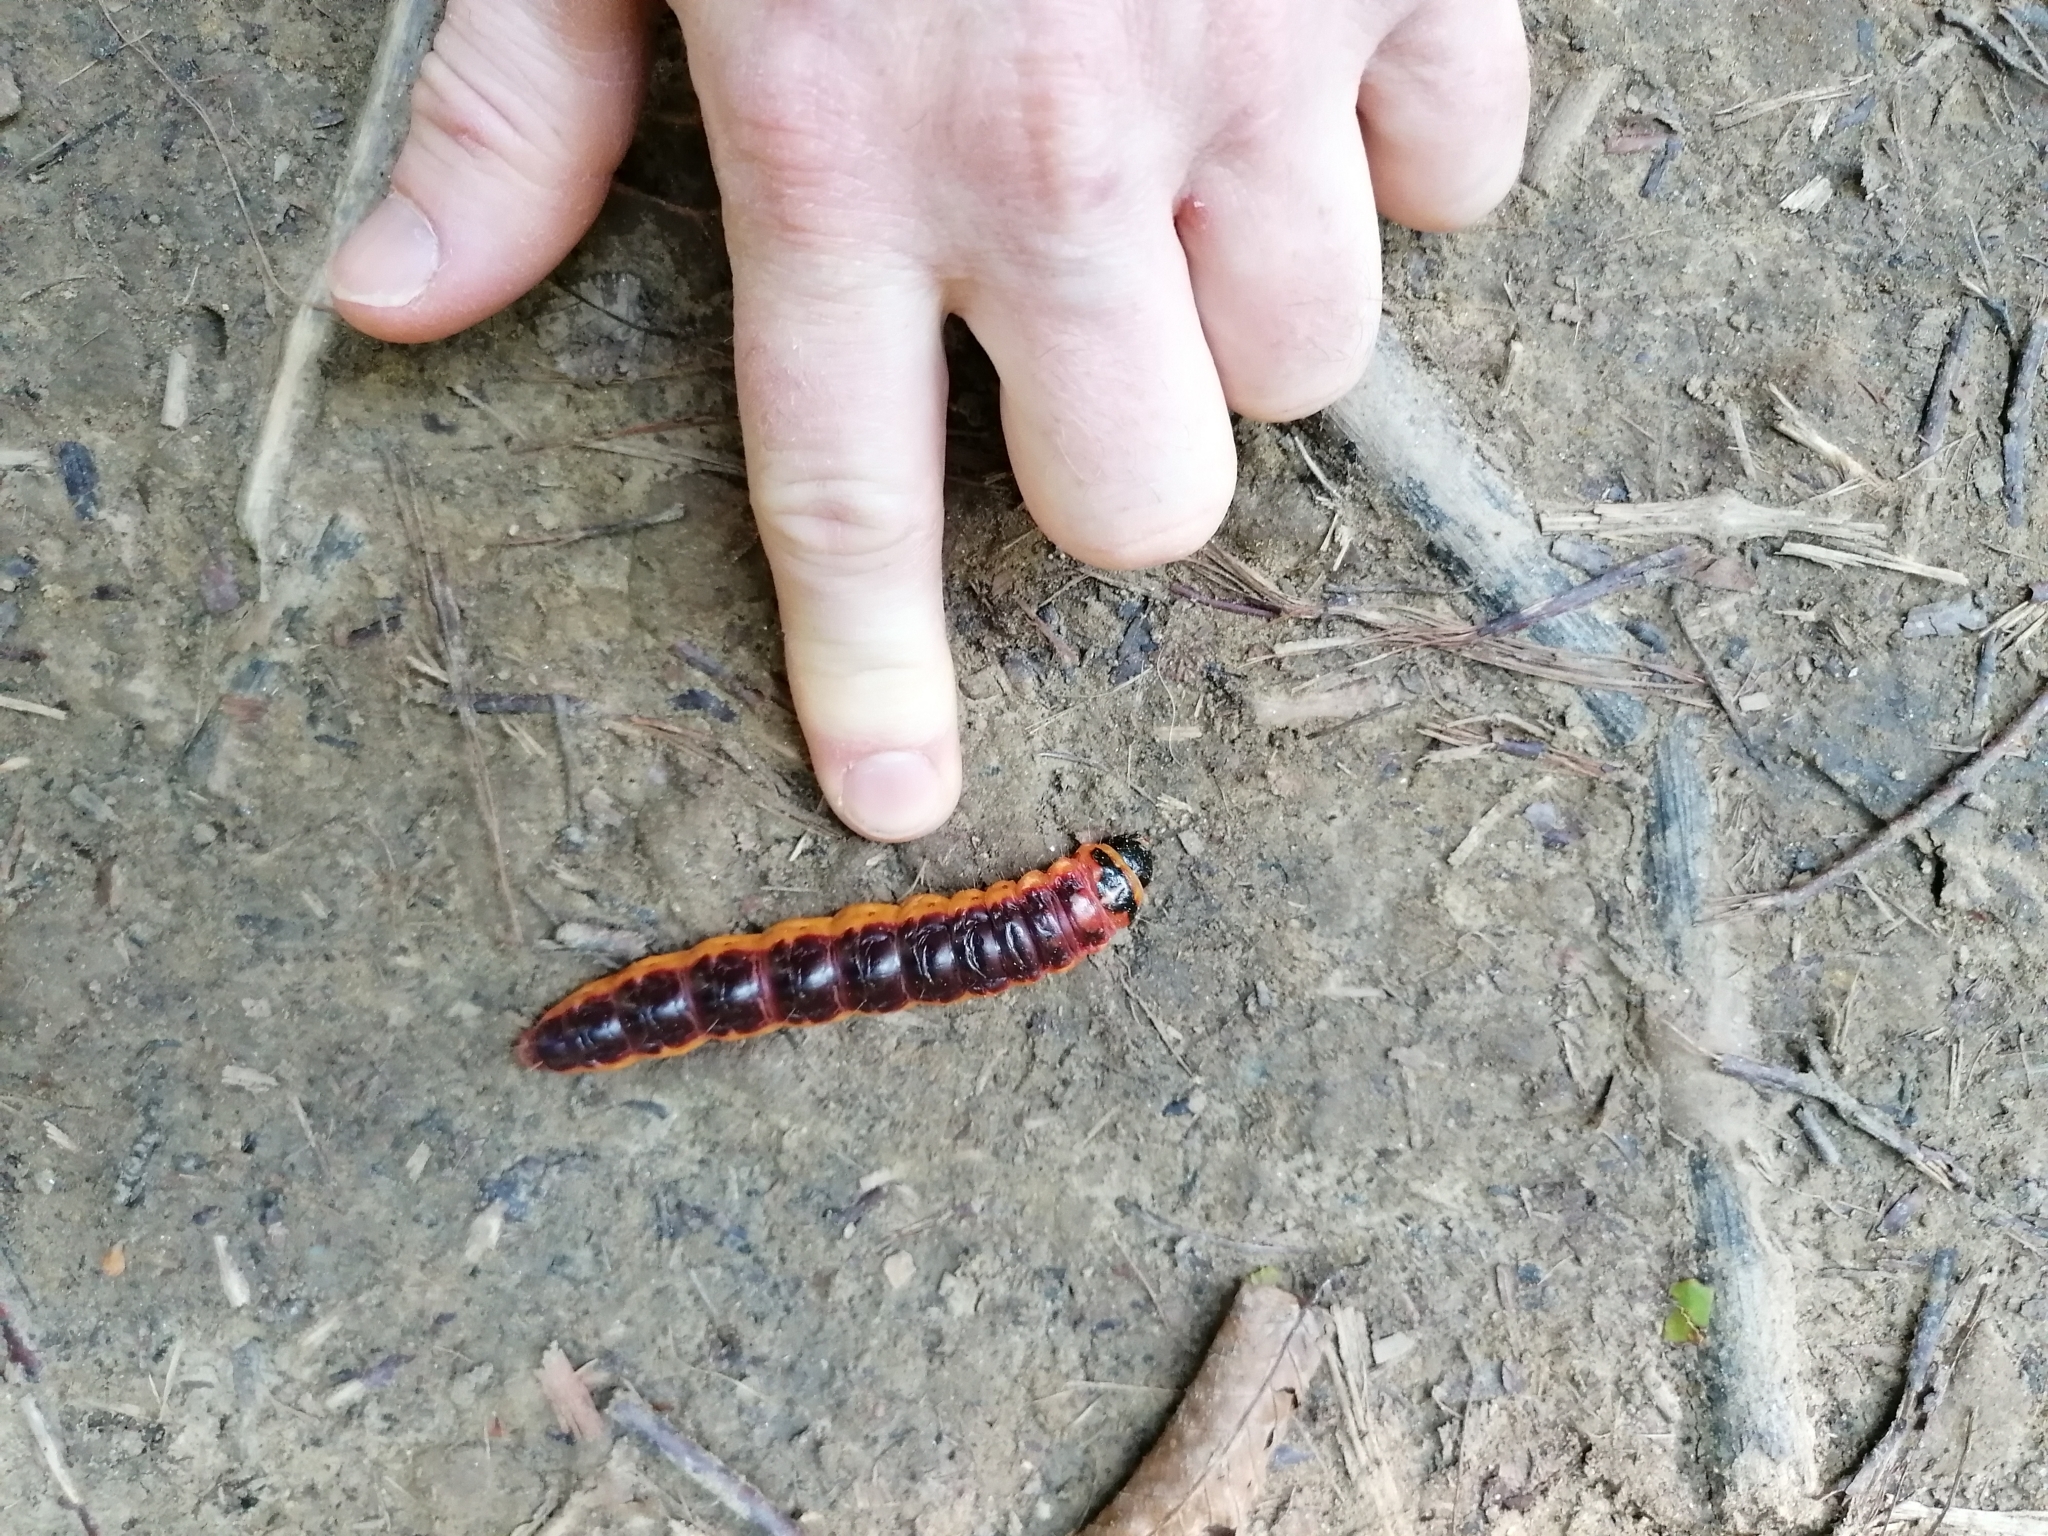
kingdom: Animalia
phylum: Arthropoda
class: Insecta
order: Lepidoptera
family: Cossidae
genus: Cossus
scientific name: Cossus cossus
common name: Goat moth
